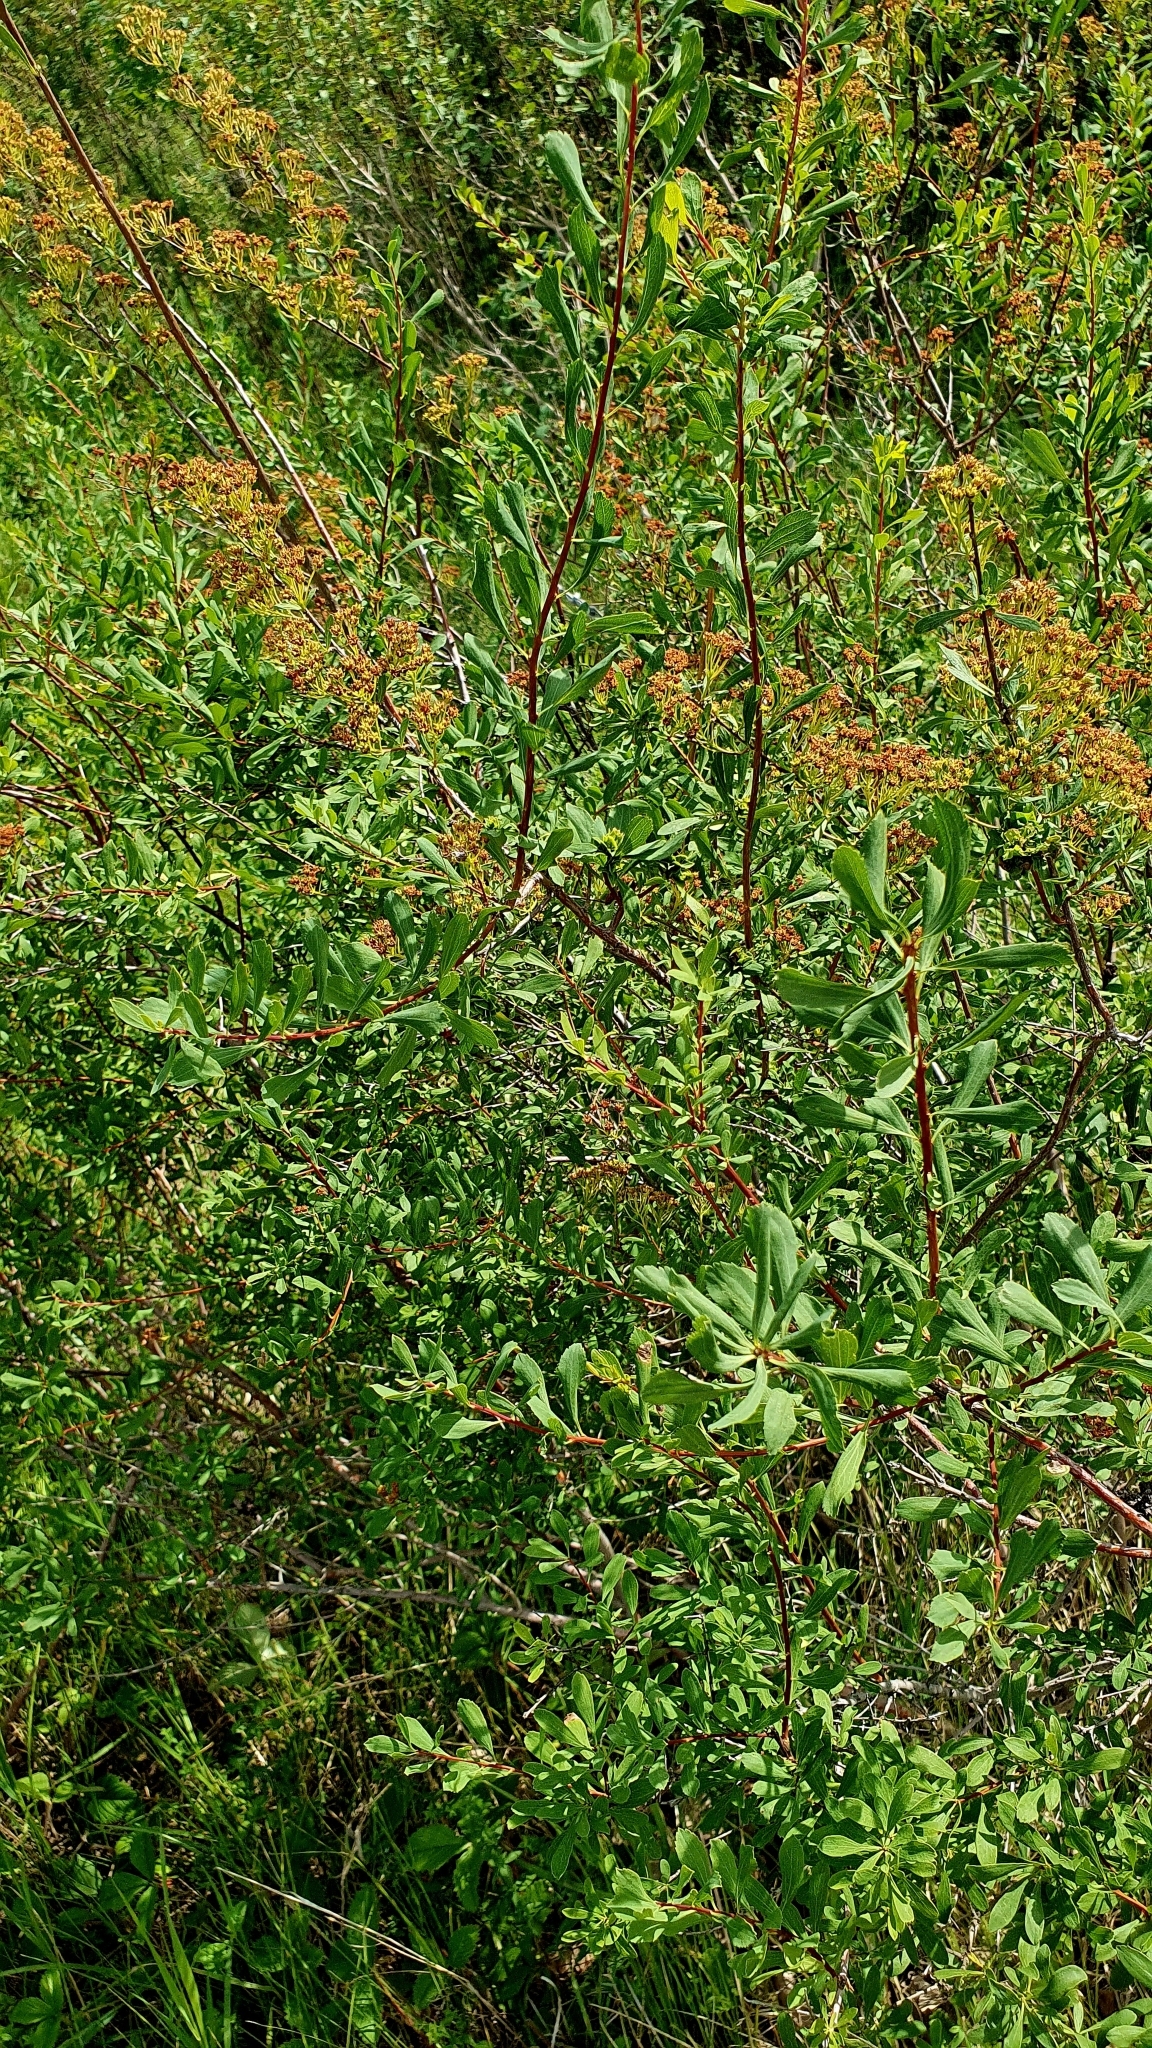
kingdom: Plantae
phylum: Tracheophyta
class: Magnoliopsida
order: Rosales
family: Rosaceae
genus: Spiraea
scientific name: Spiraea crenata
